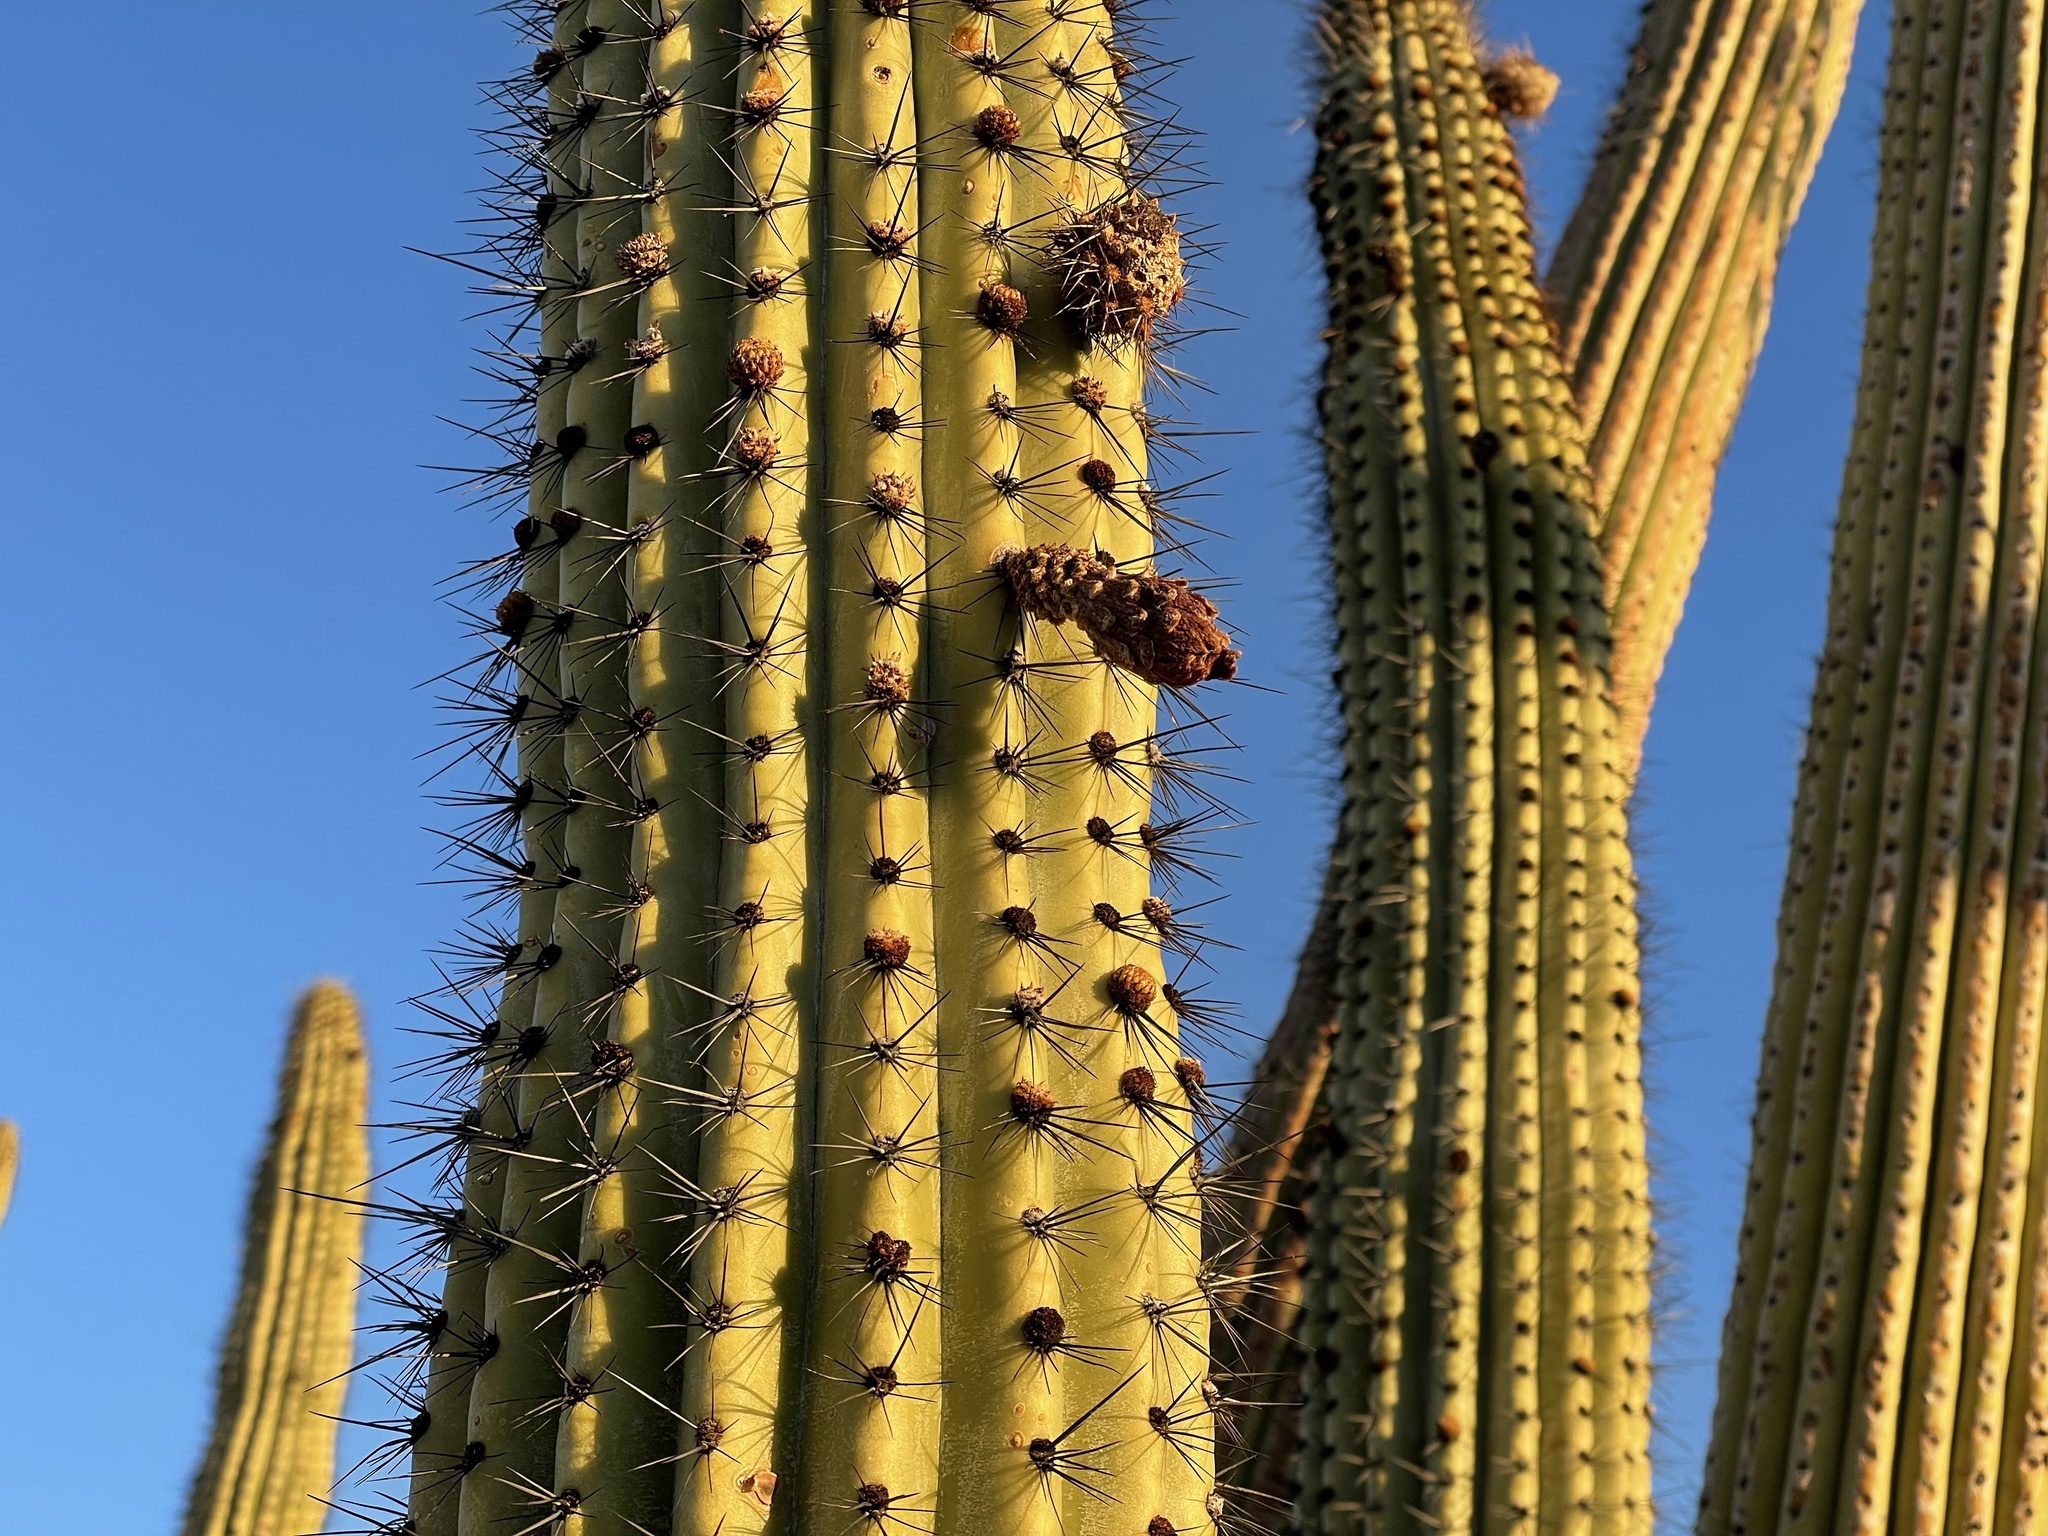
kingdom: Plantae
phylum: Tracheophyta
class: Magnoliopsida
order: Caryophyllales
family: Cactaceae
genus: Stenocereus
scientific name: Stenocereus thurberi
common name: Organ pipe cactus
